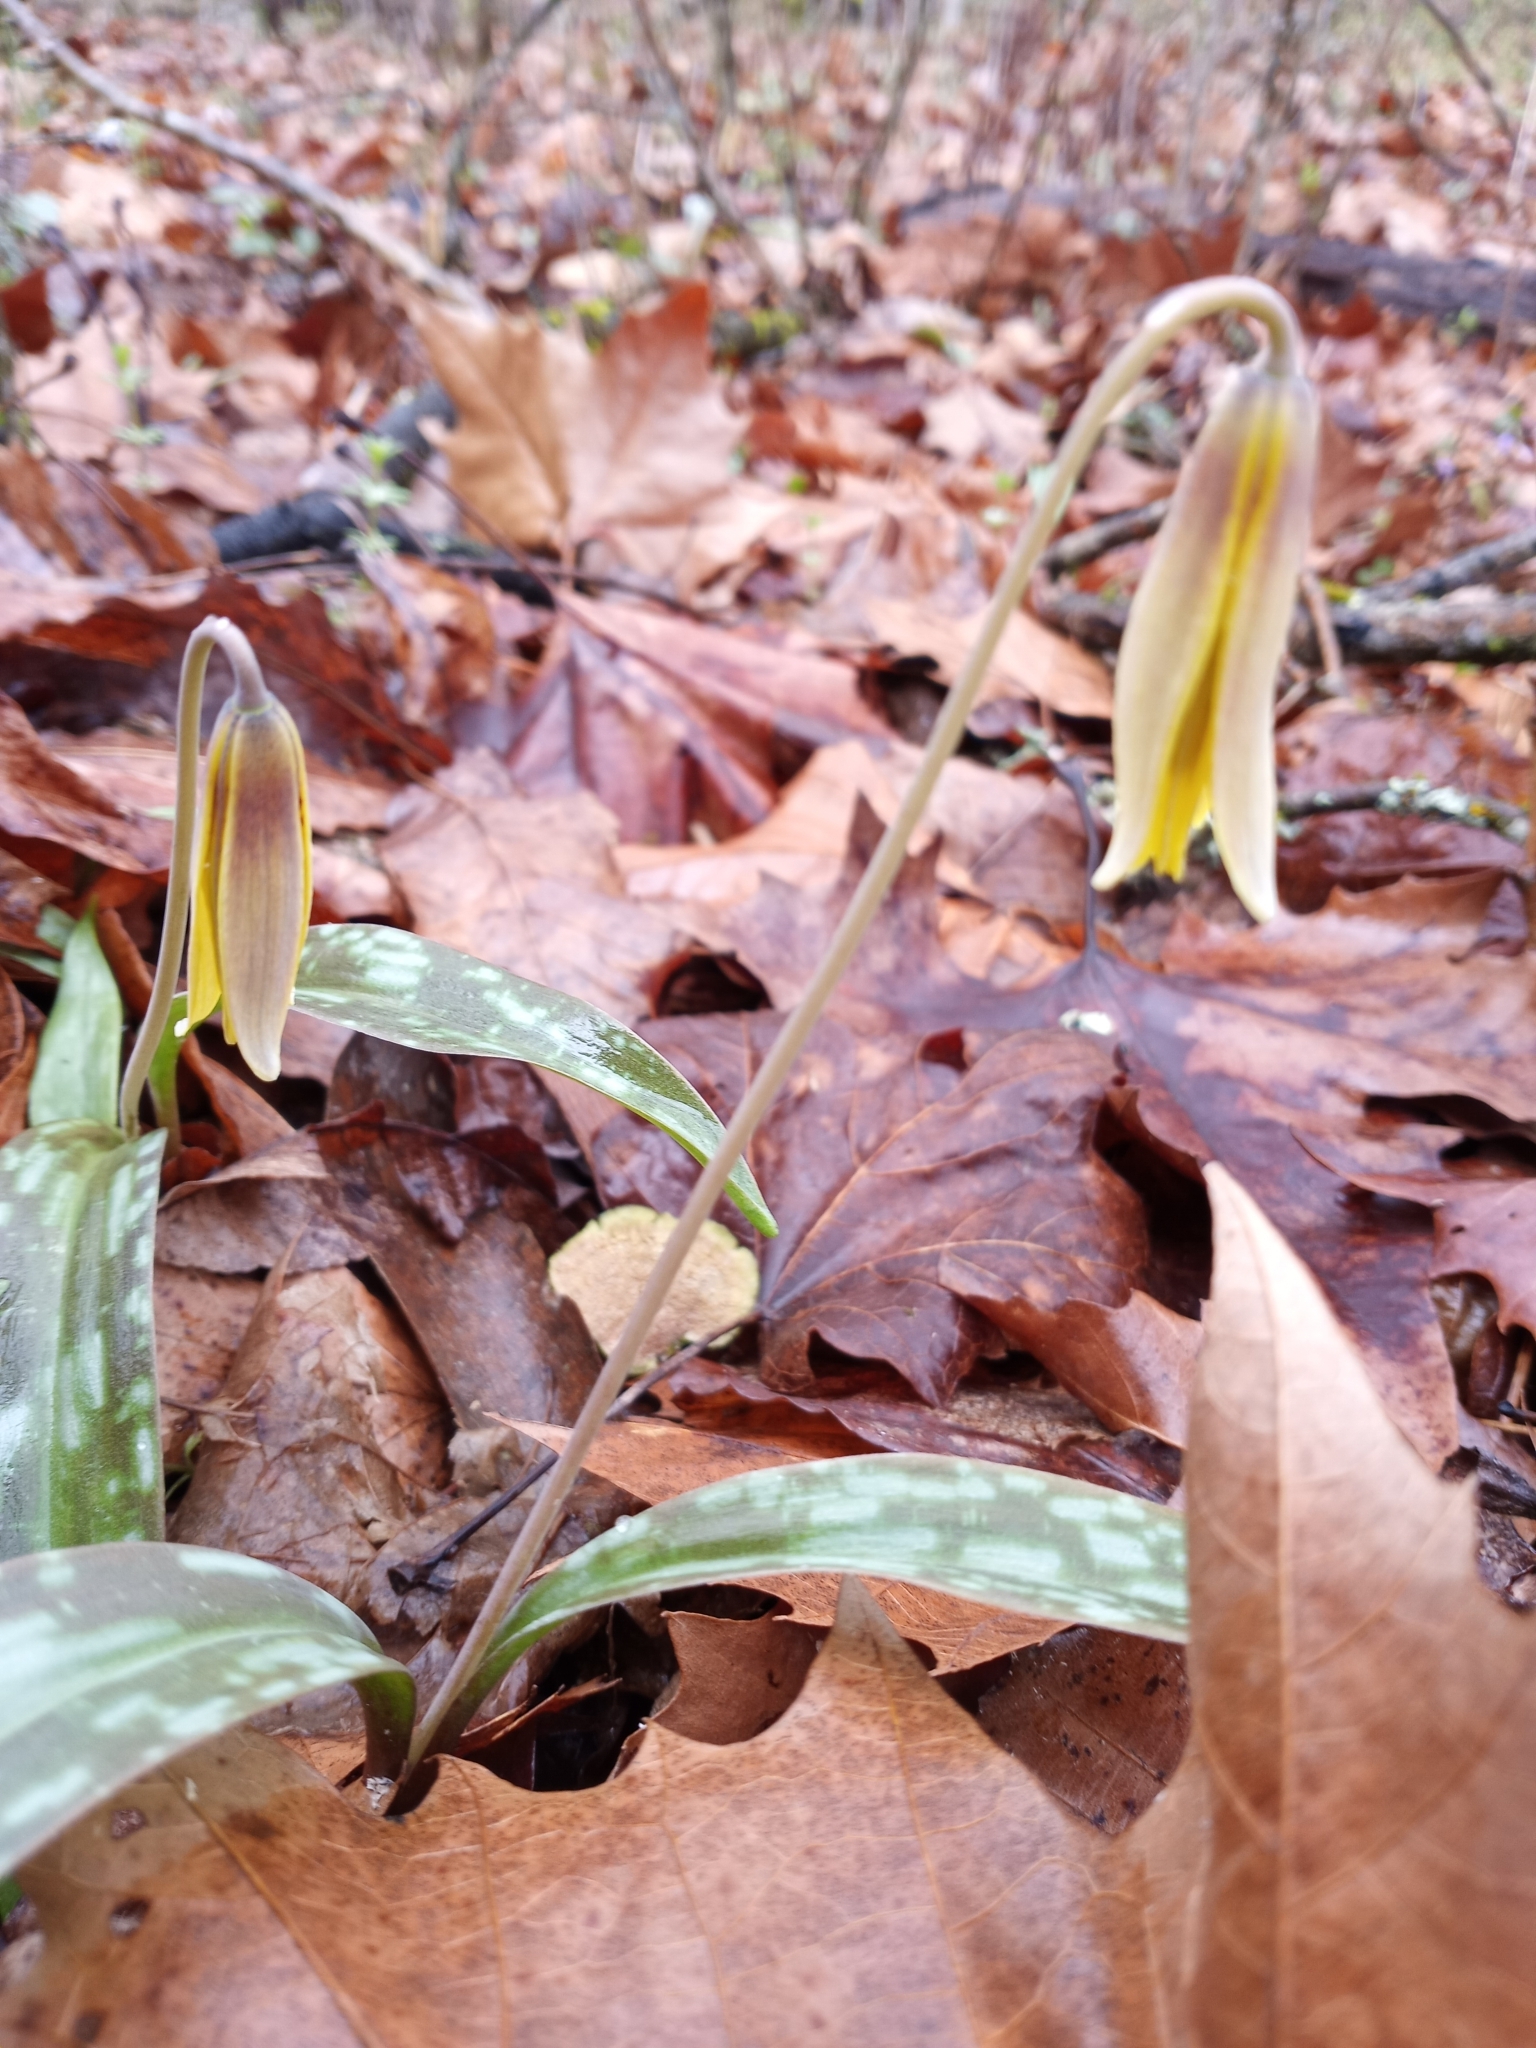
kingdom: Plantae
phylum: Tracheophyta
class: Liliopsida
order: Liliales
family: Liliaceae
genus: Erythronium
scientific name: Erythronium americanum
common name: Yellow adder's-tongue
